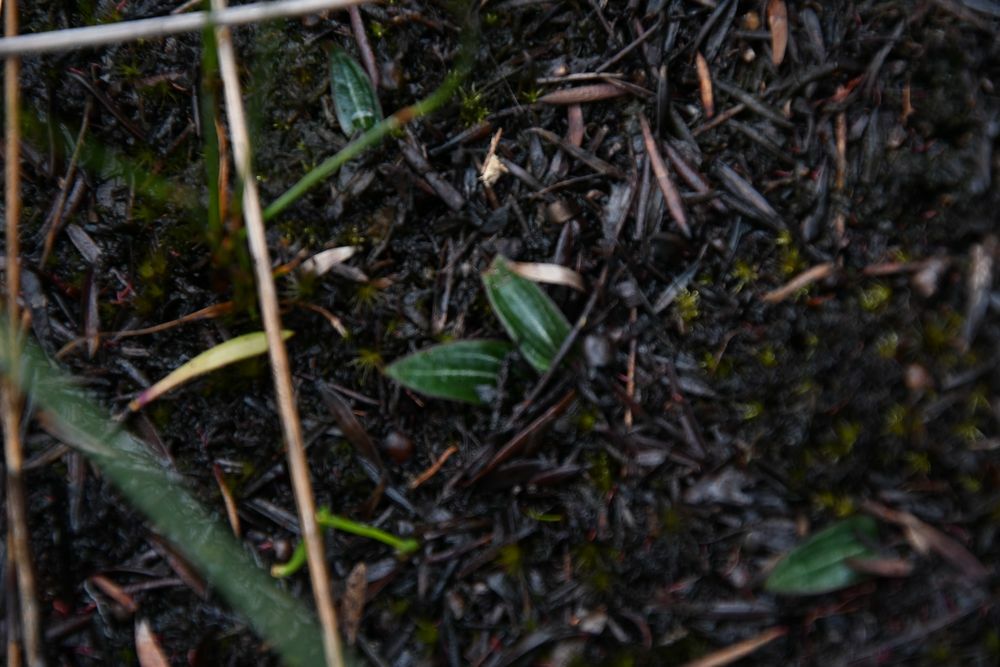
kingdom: Plantae
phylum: Tracheophyta
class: Liliopsida
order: Asparagales
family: Orchidaceae
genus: Eriochilus
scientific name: Eriochilus tenuis
